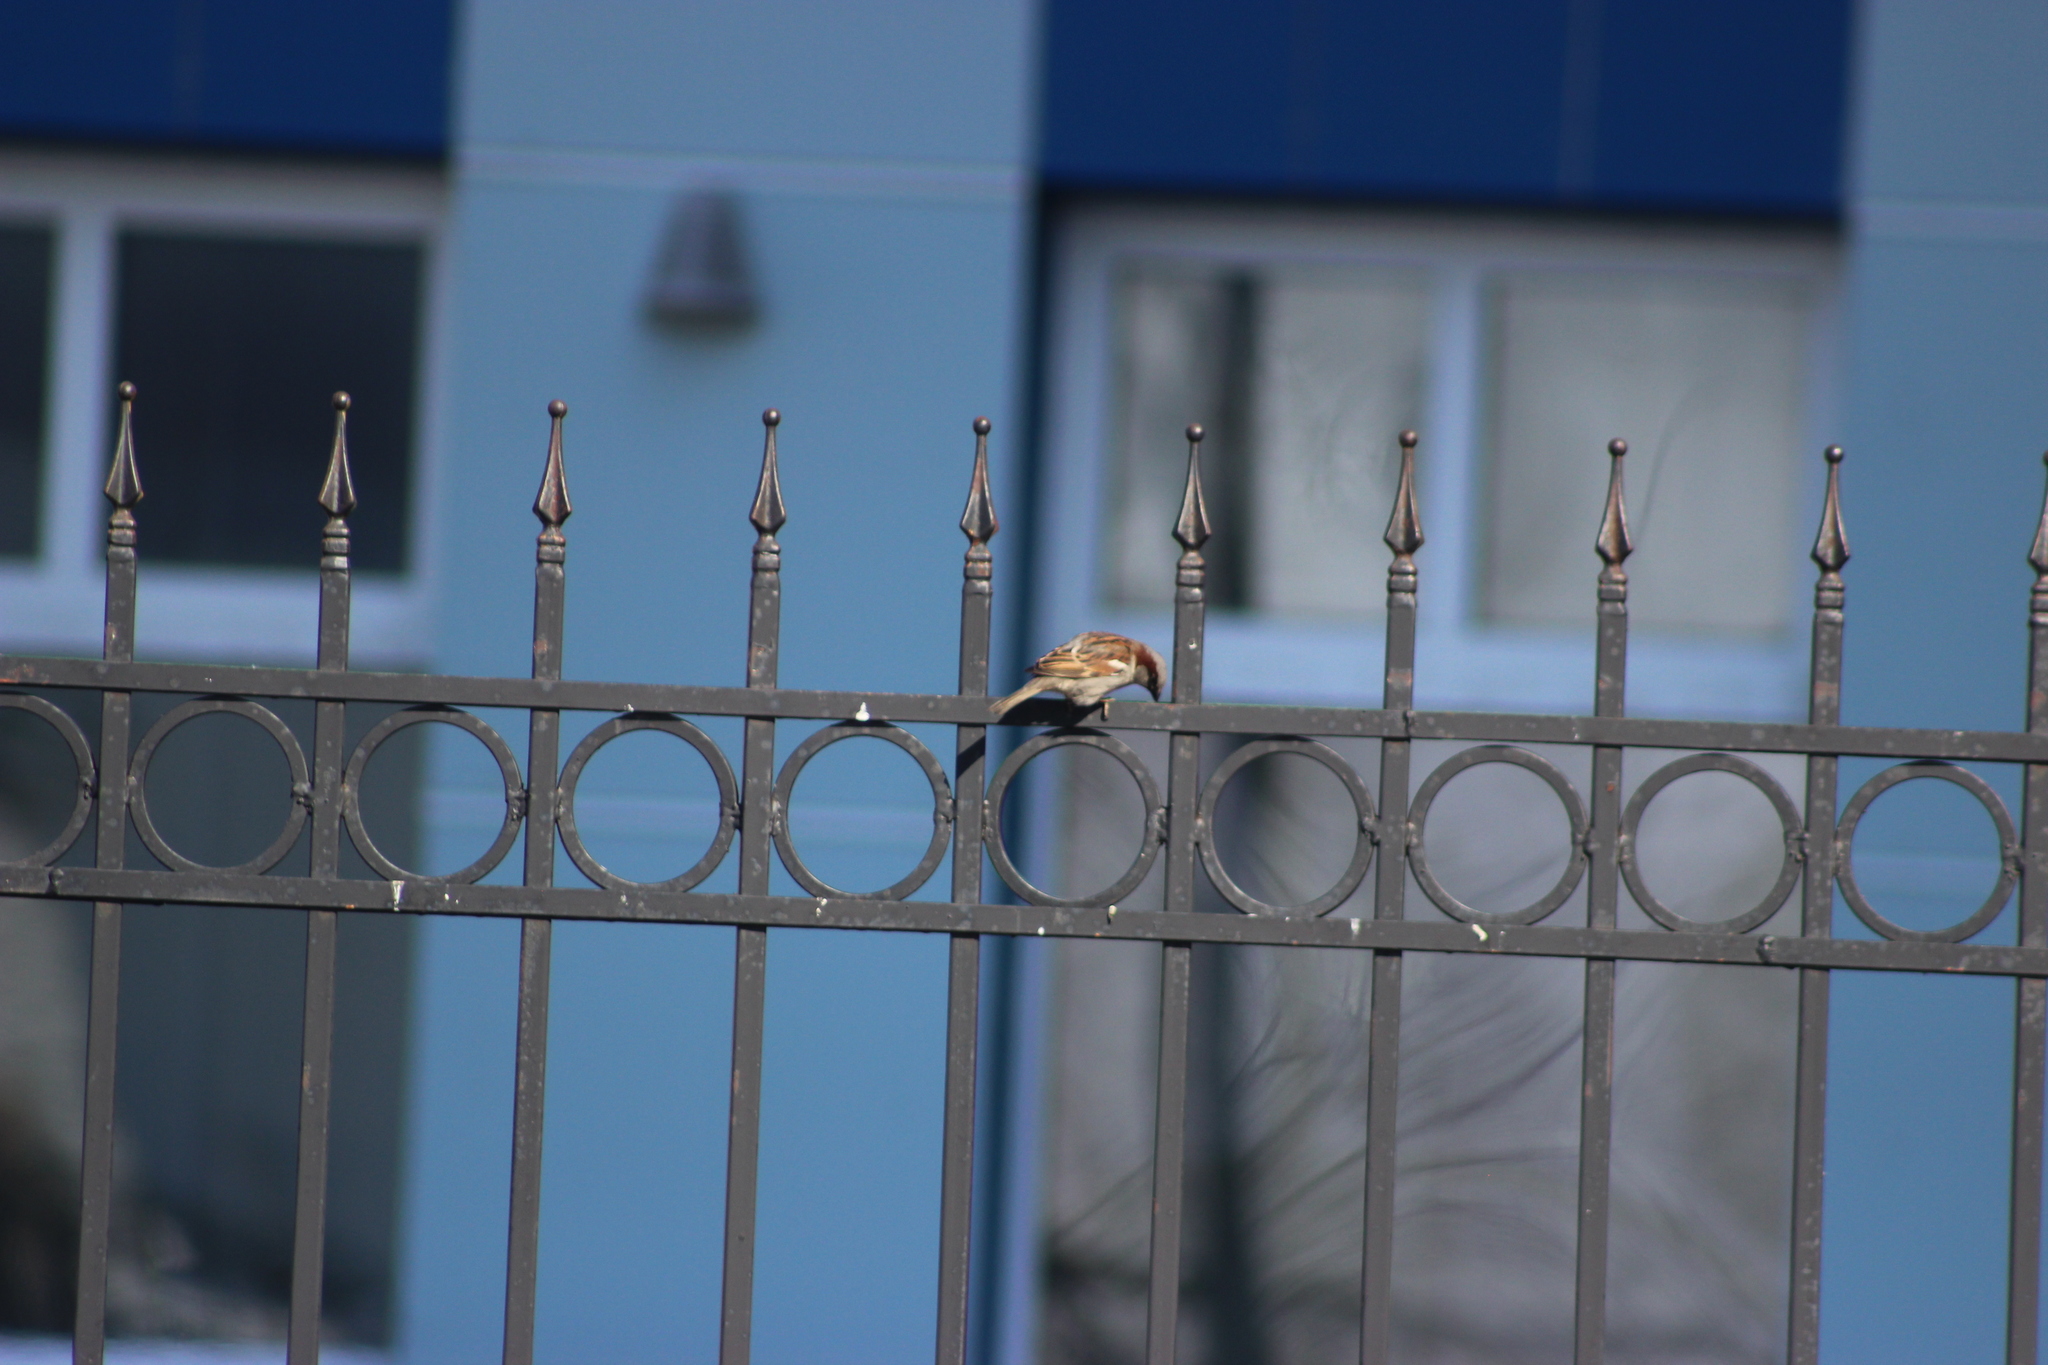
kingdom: Animalia
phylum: Chordata
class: Aves
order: Passeriformes
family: Passeridae
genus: Passer
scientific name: Passer domesticus
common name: House sparrow
